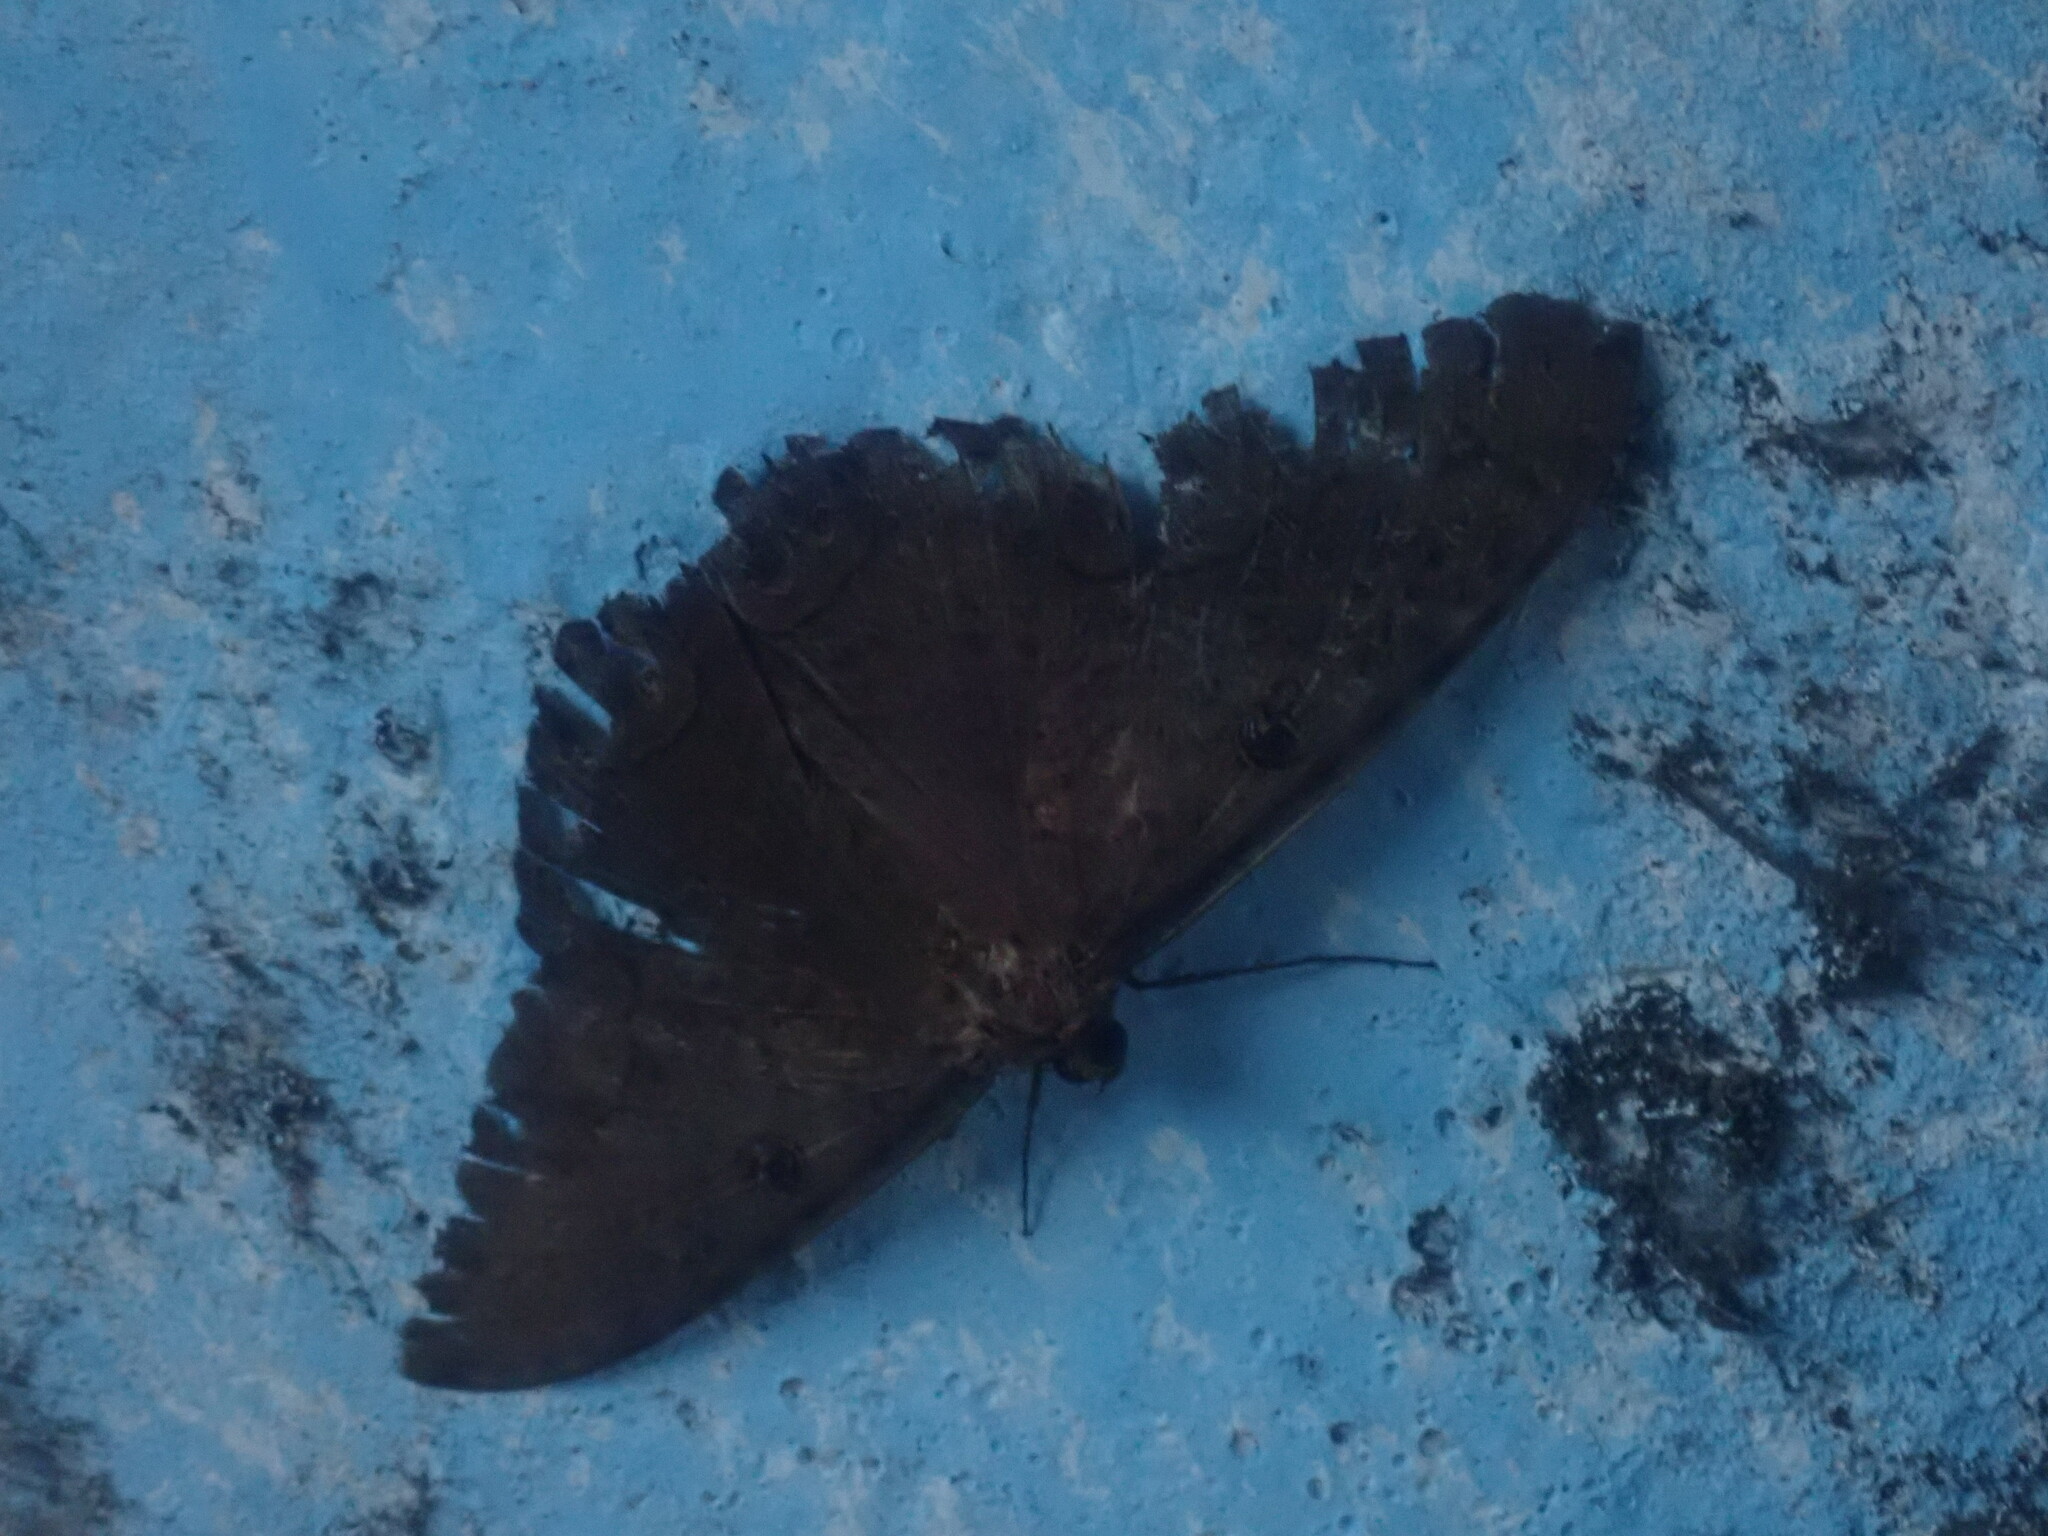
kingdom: Animalia
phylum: Arthropoda
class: Insecta
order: Lepidoptera
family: Erebidae
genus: Ascalapha
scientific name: Ascalapha odorata
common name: Black witch
